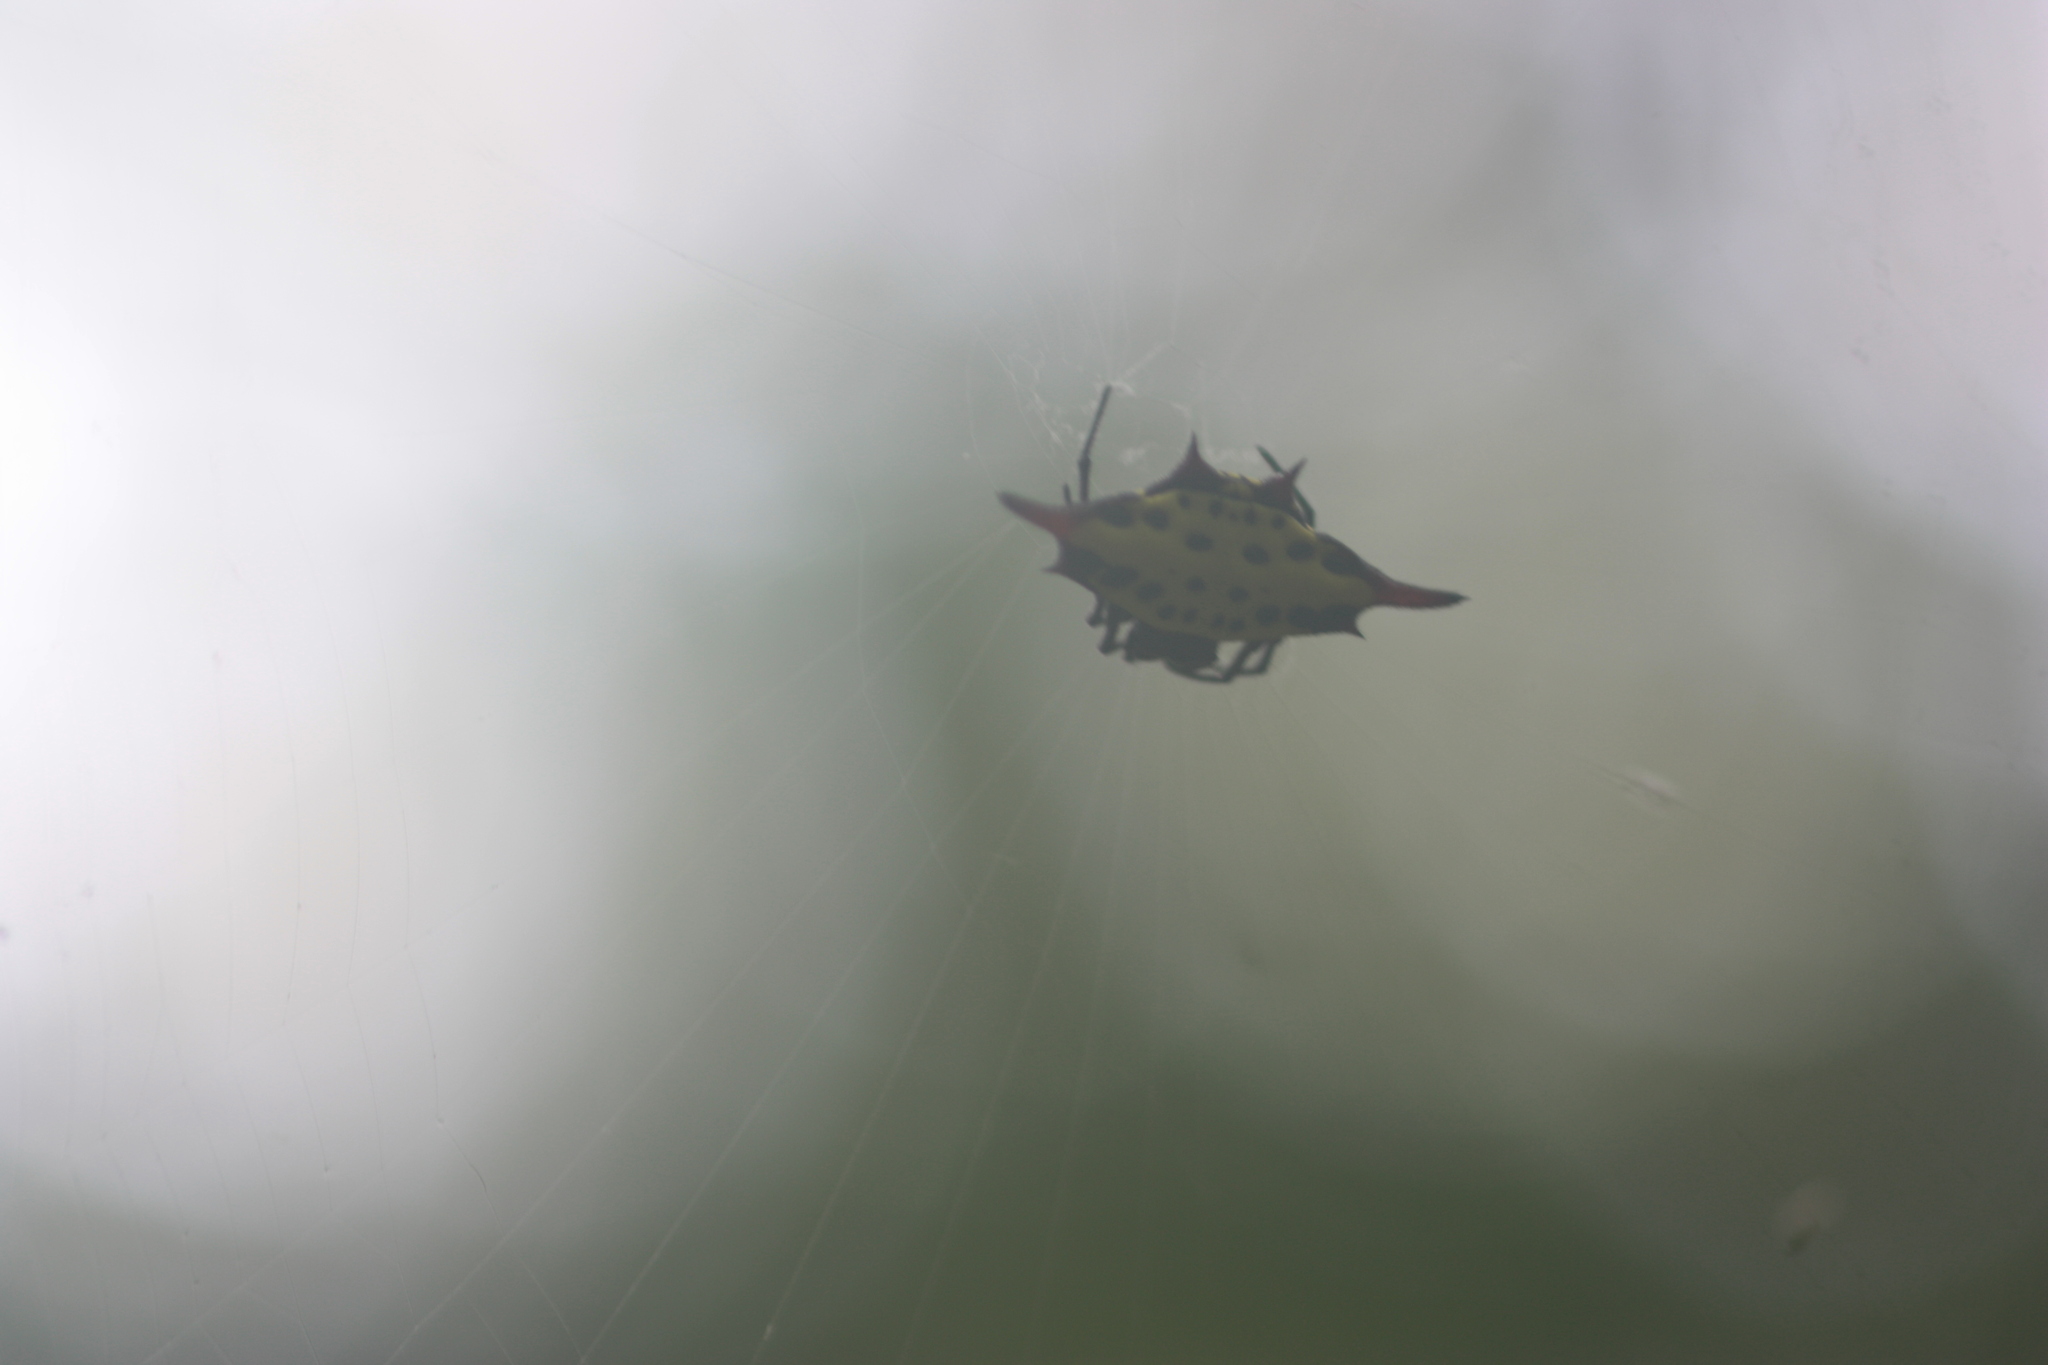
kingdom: Animalia
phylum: Arthropoda
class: Arachnida
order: Araneae
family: Araneidae
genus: Gasteracantha
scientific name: Gasteracantha sauteri
